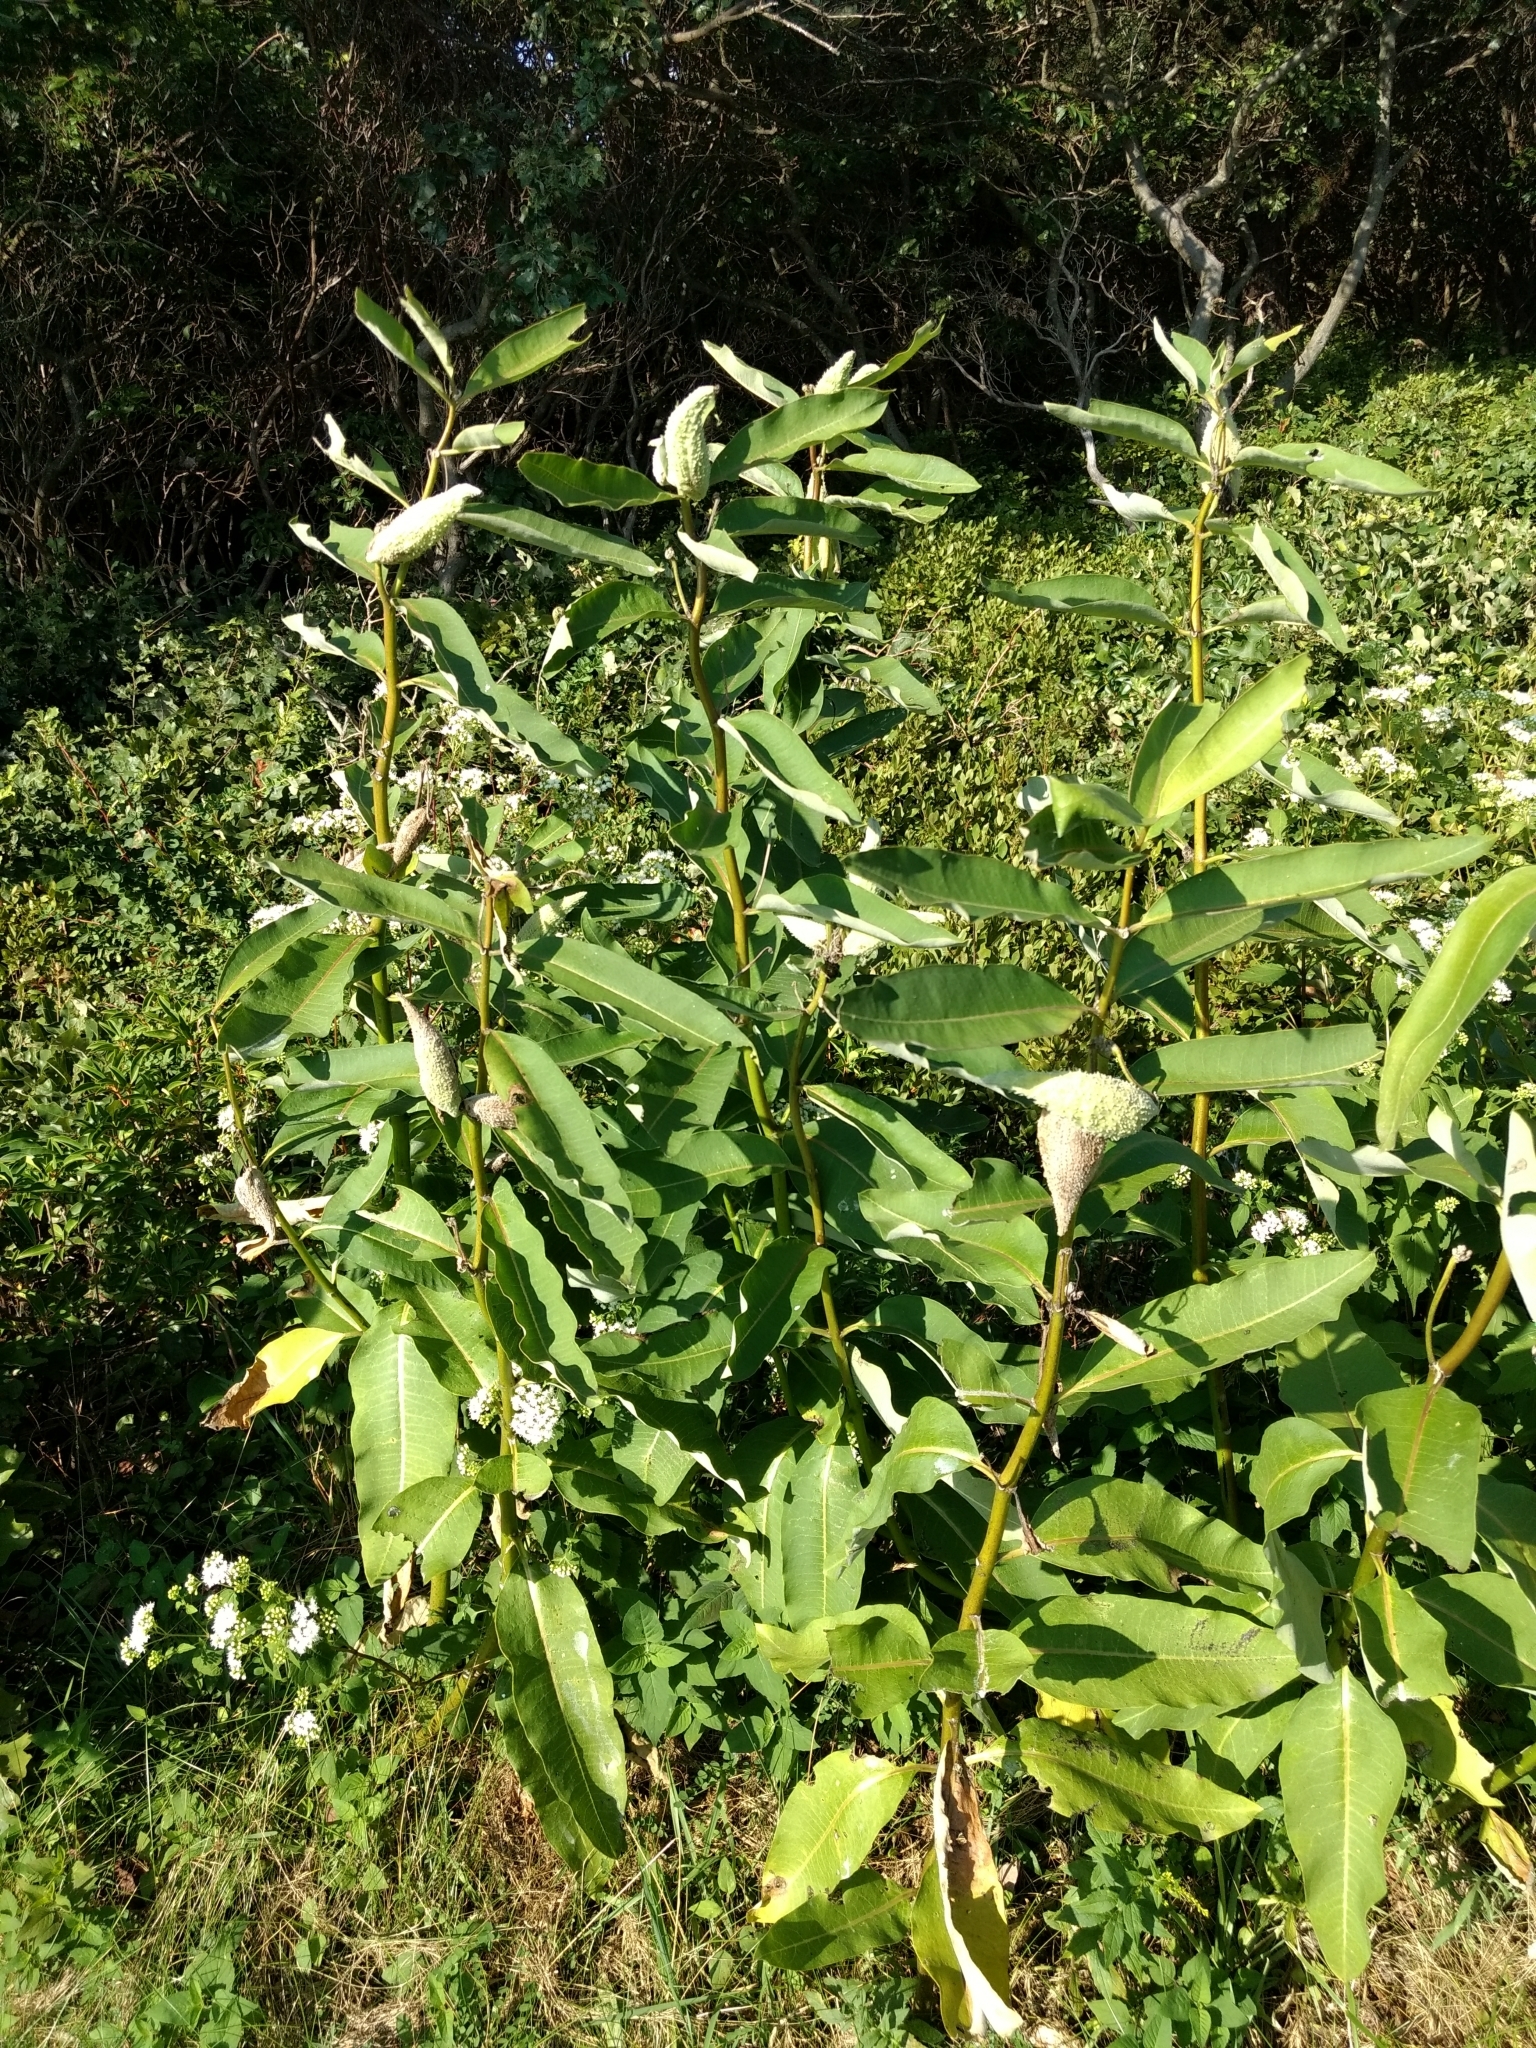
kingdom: Plantae
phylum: Tracheophyta
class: Magnoliopsida
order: Gentianales
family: Apocynaceae
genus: Asclepias
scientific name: Asclepias syriaca
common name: Common milkweed
